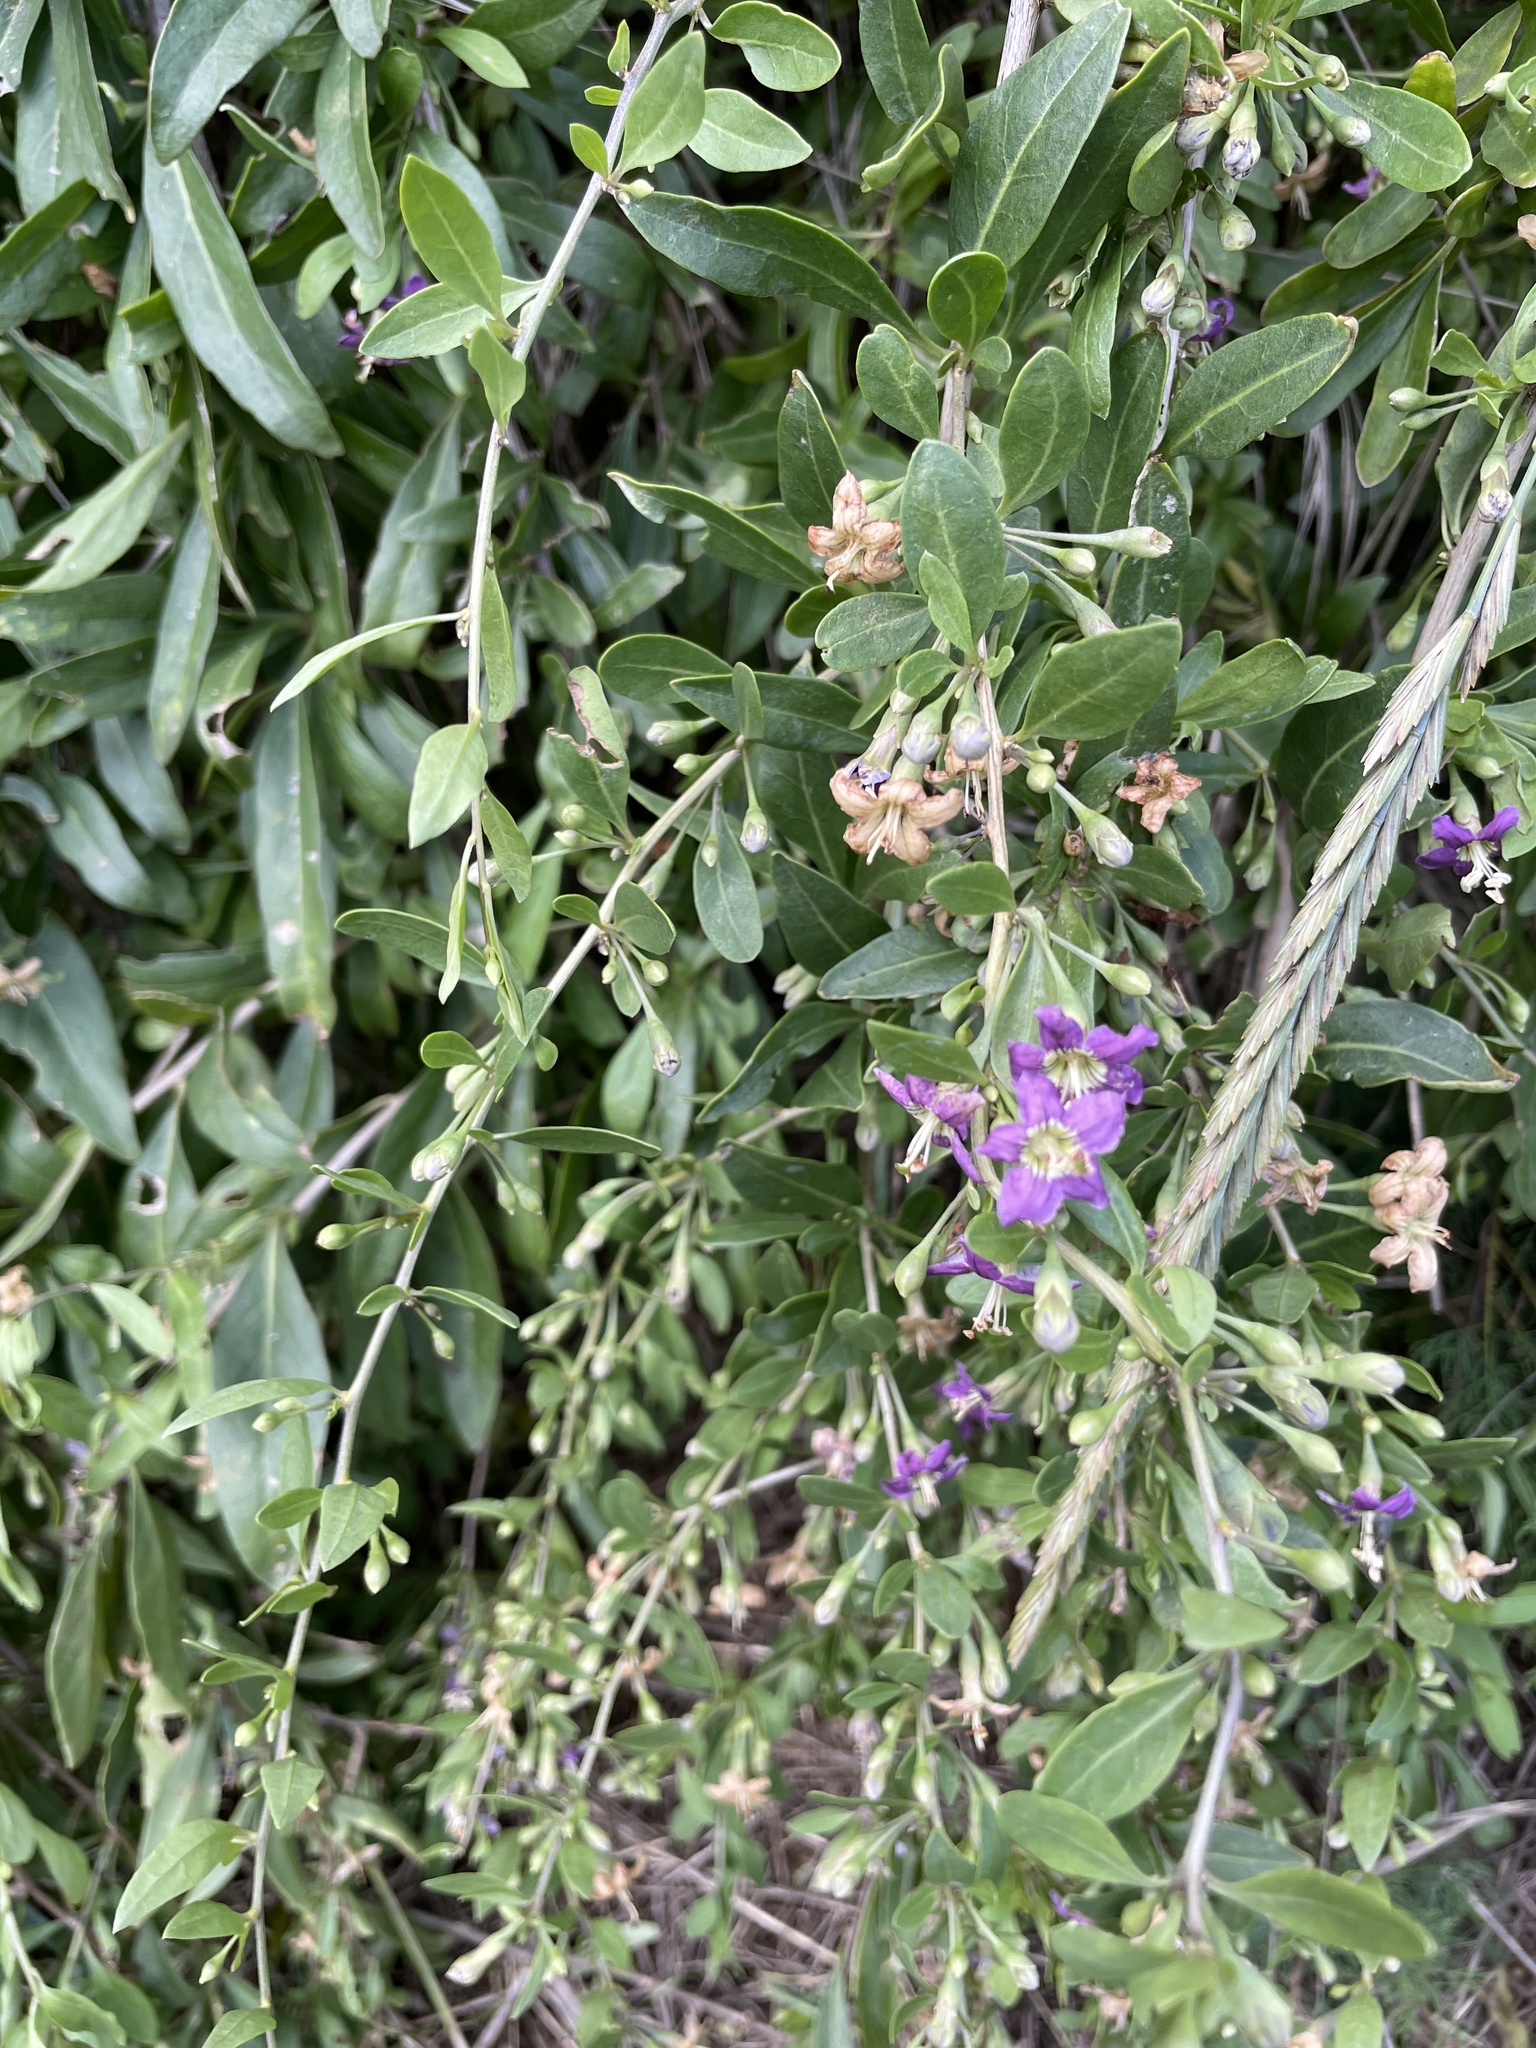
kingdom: Plantae
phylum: Tracheophyta
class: Magnoliopsida
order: Solanales
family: Solanaceae
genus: Lycium
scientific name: Lycium barbarum
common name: Duke of argyll's teaplant
